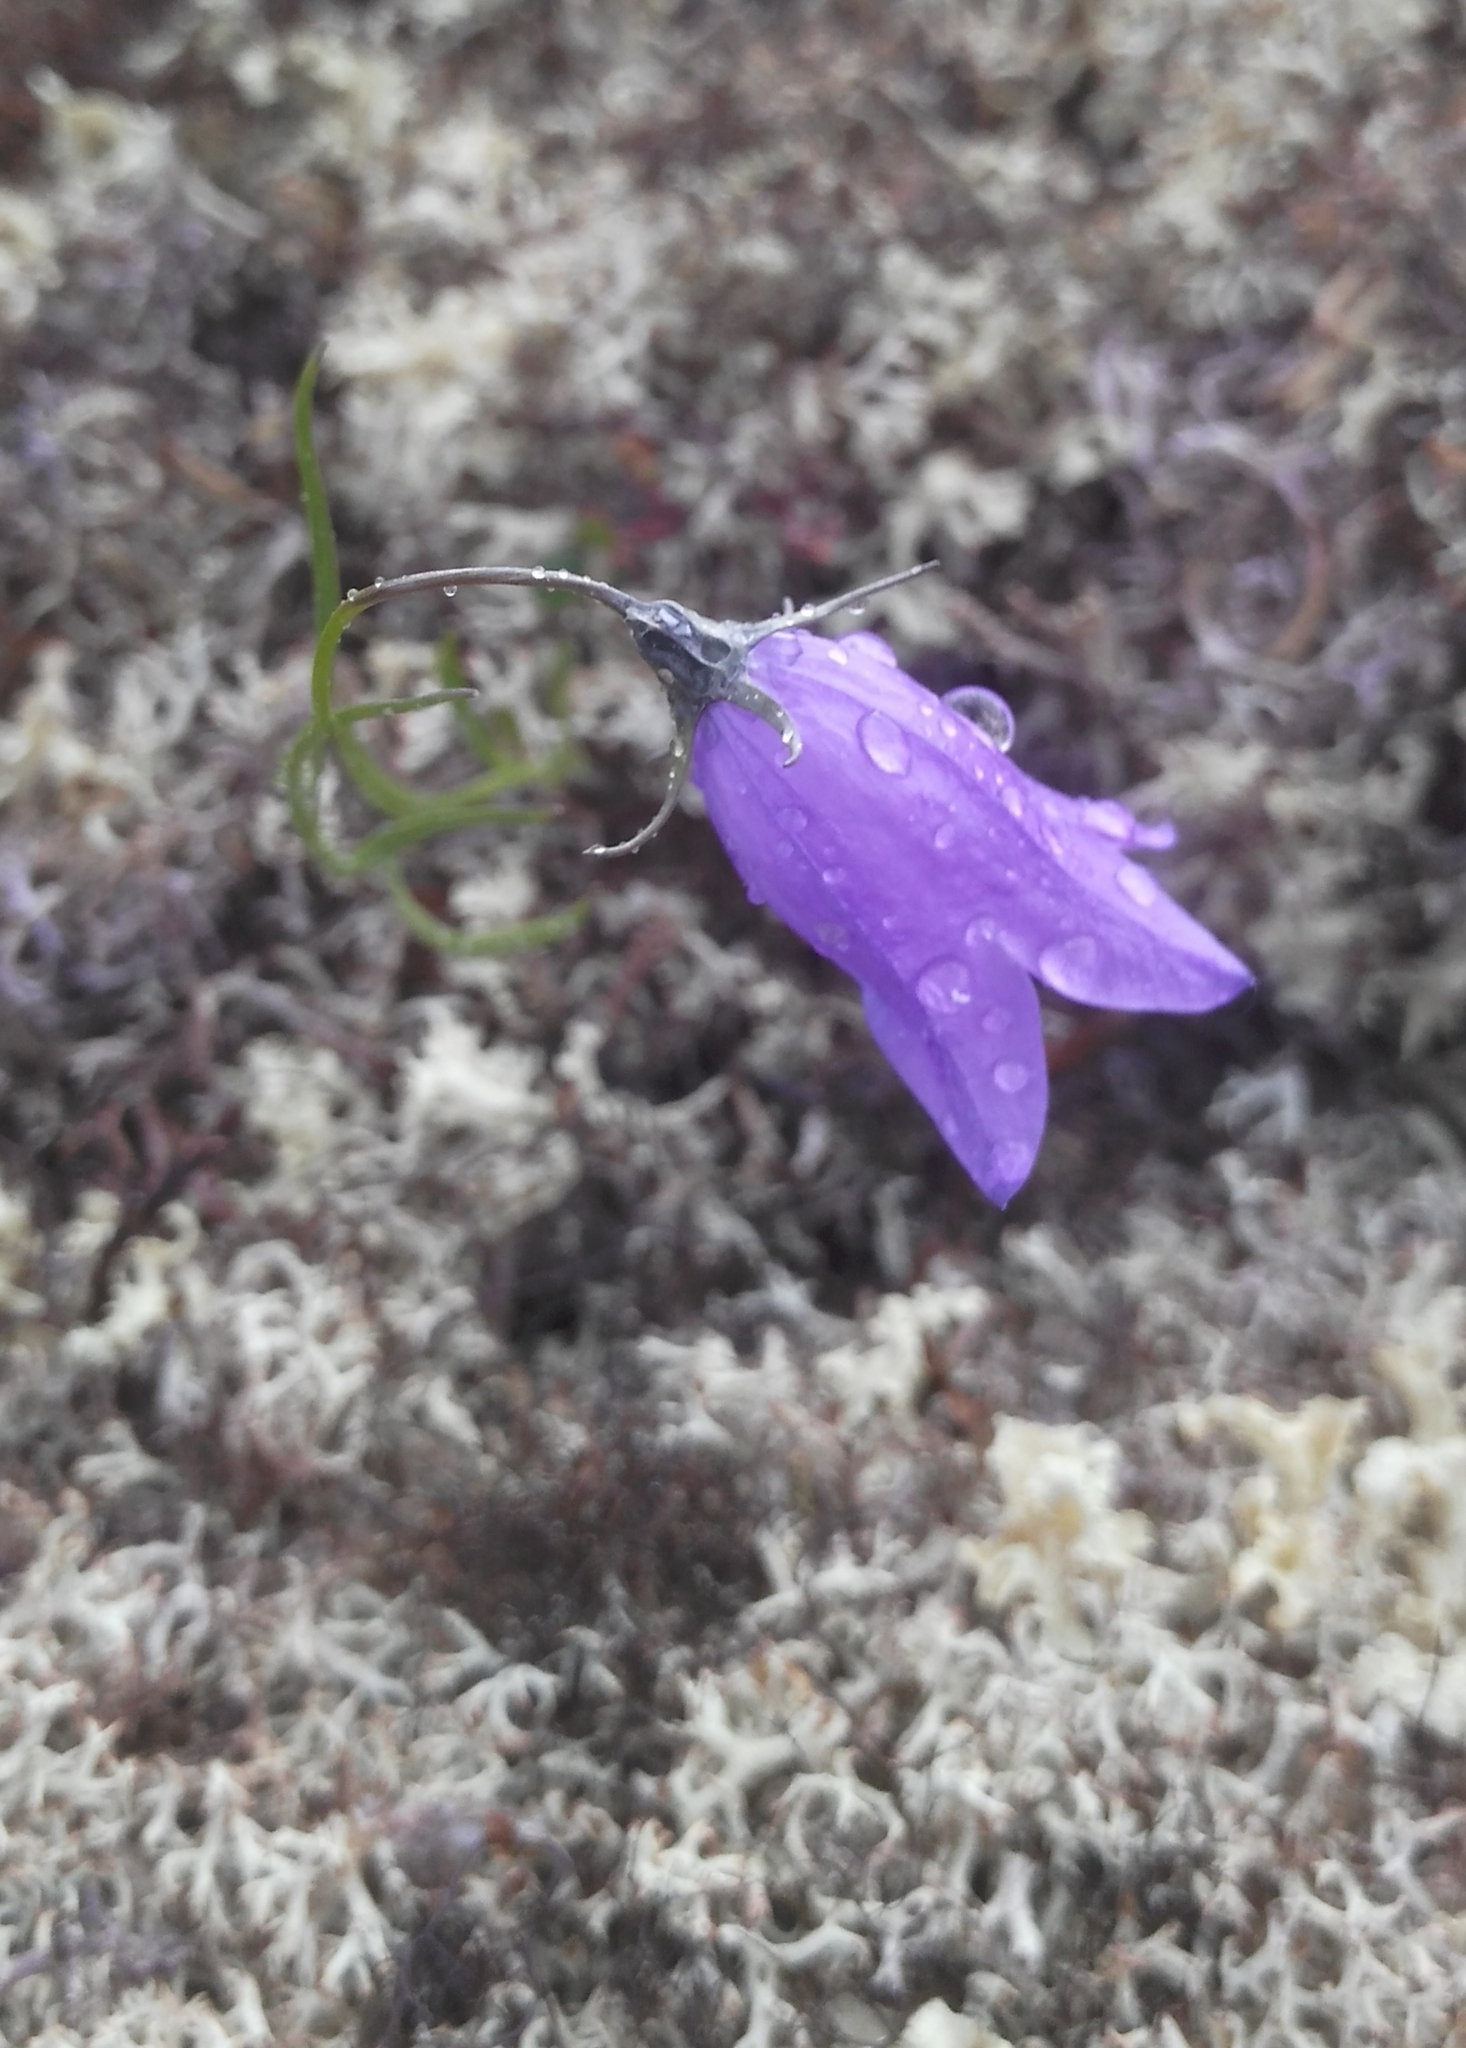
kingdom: Plantae
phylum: Tracheophyta
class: Magnoliopsida
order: Asterales
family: Campanulaceae
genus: Campanula
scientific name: Campanula rotundifolia
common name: Harebell
